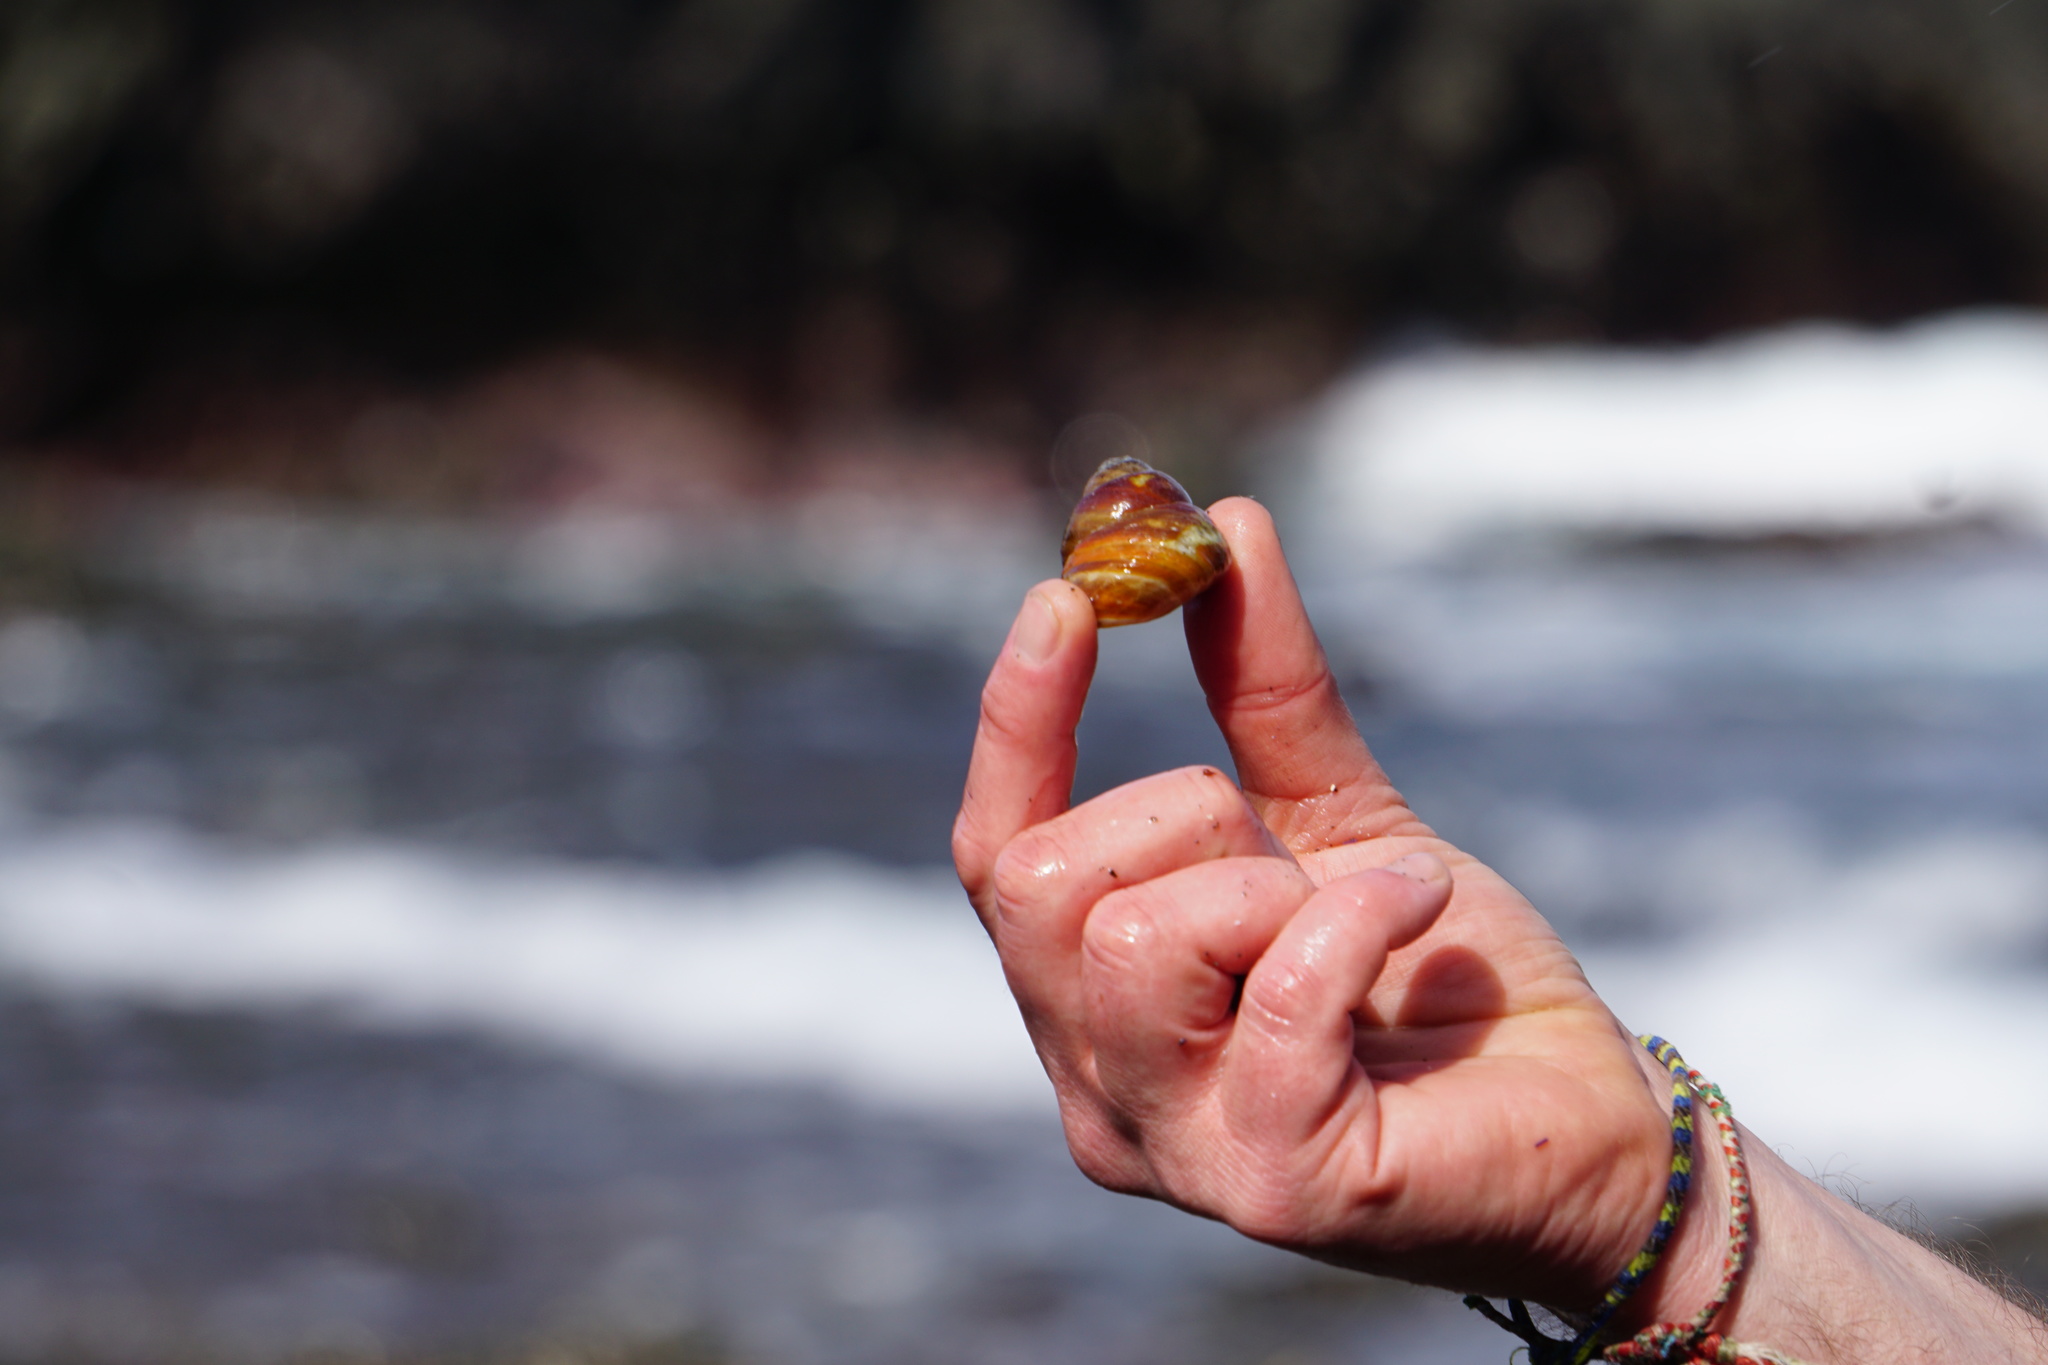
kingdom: Animalia
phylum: Mollusca
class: Gastropoda
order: Trochida
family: Tegulidae
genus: Tegula
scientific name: Tegula brunnea
